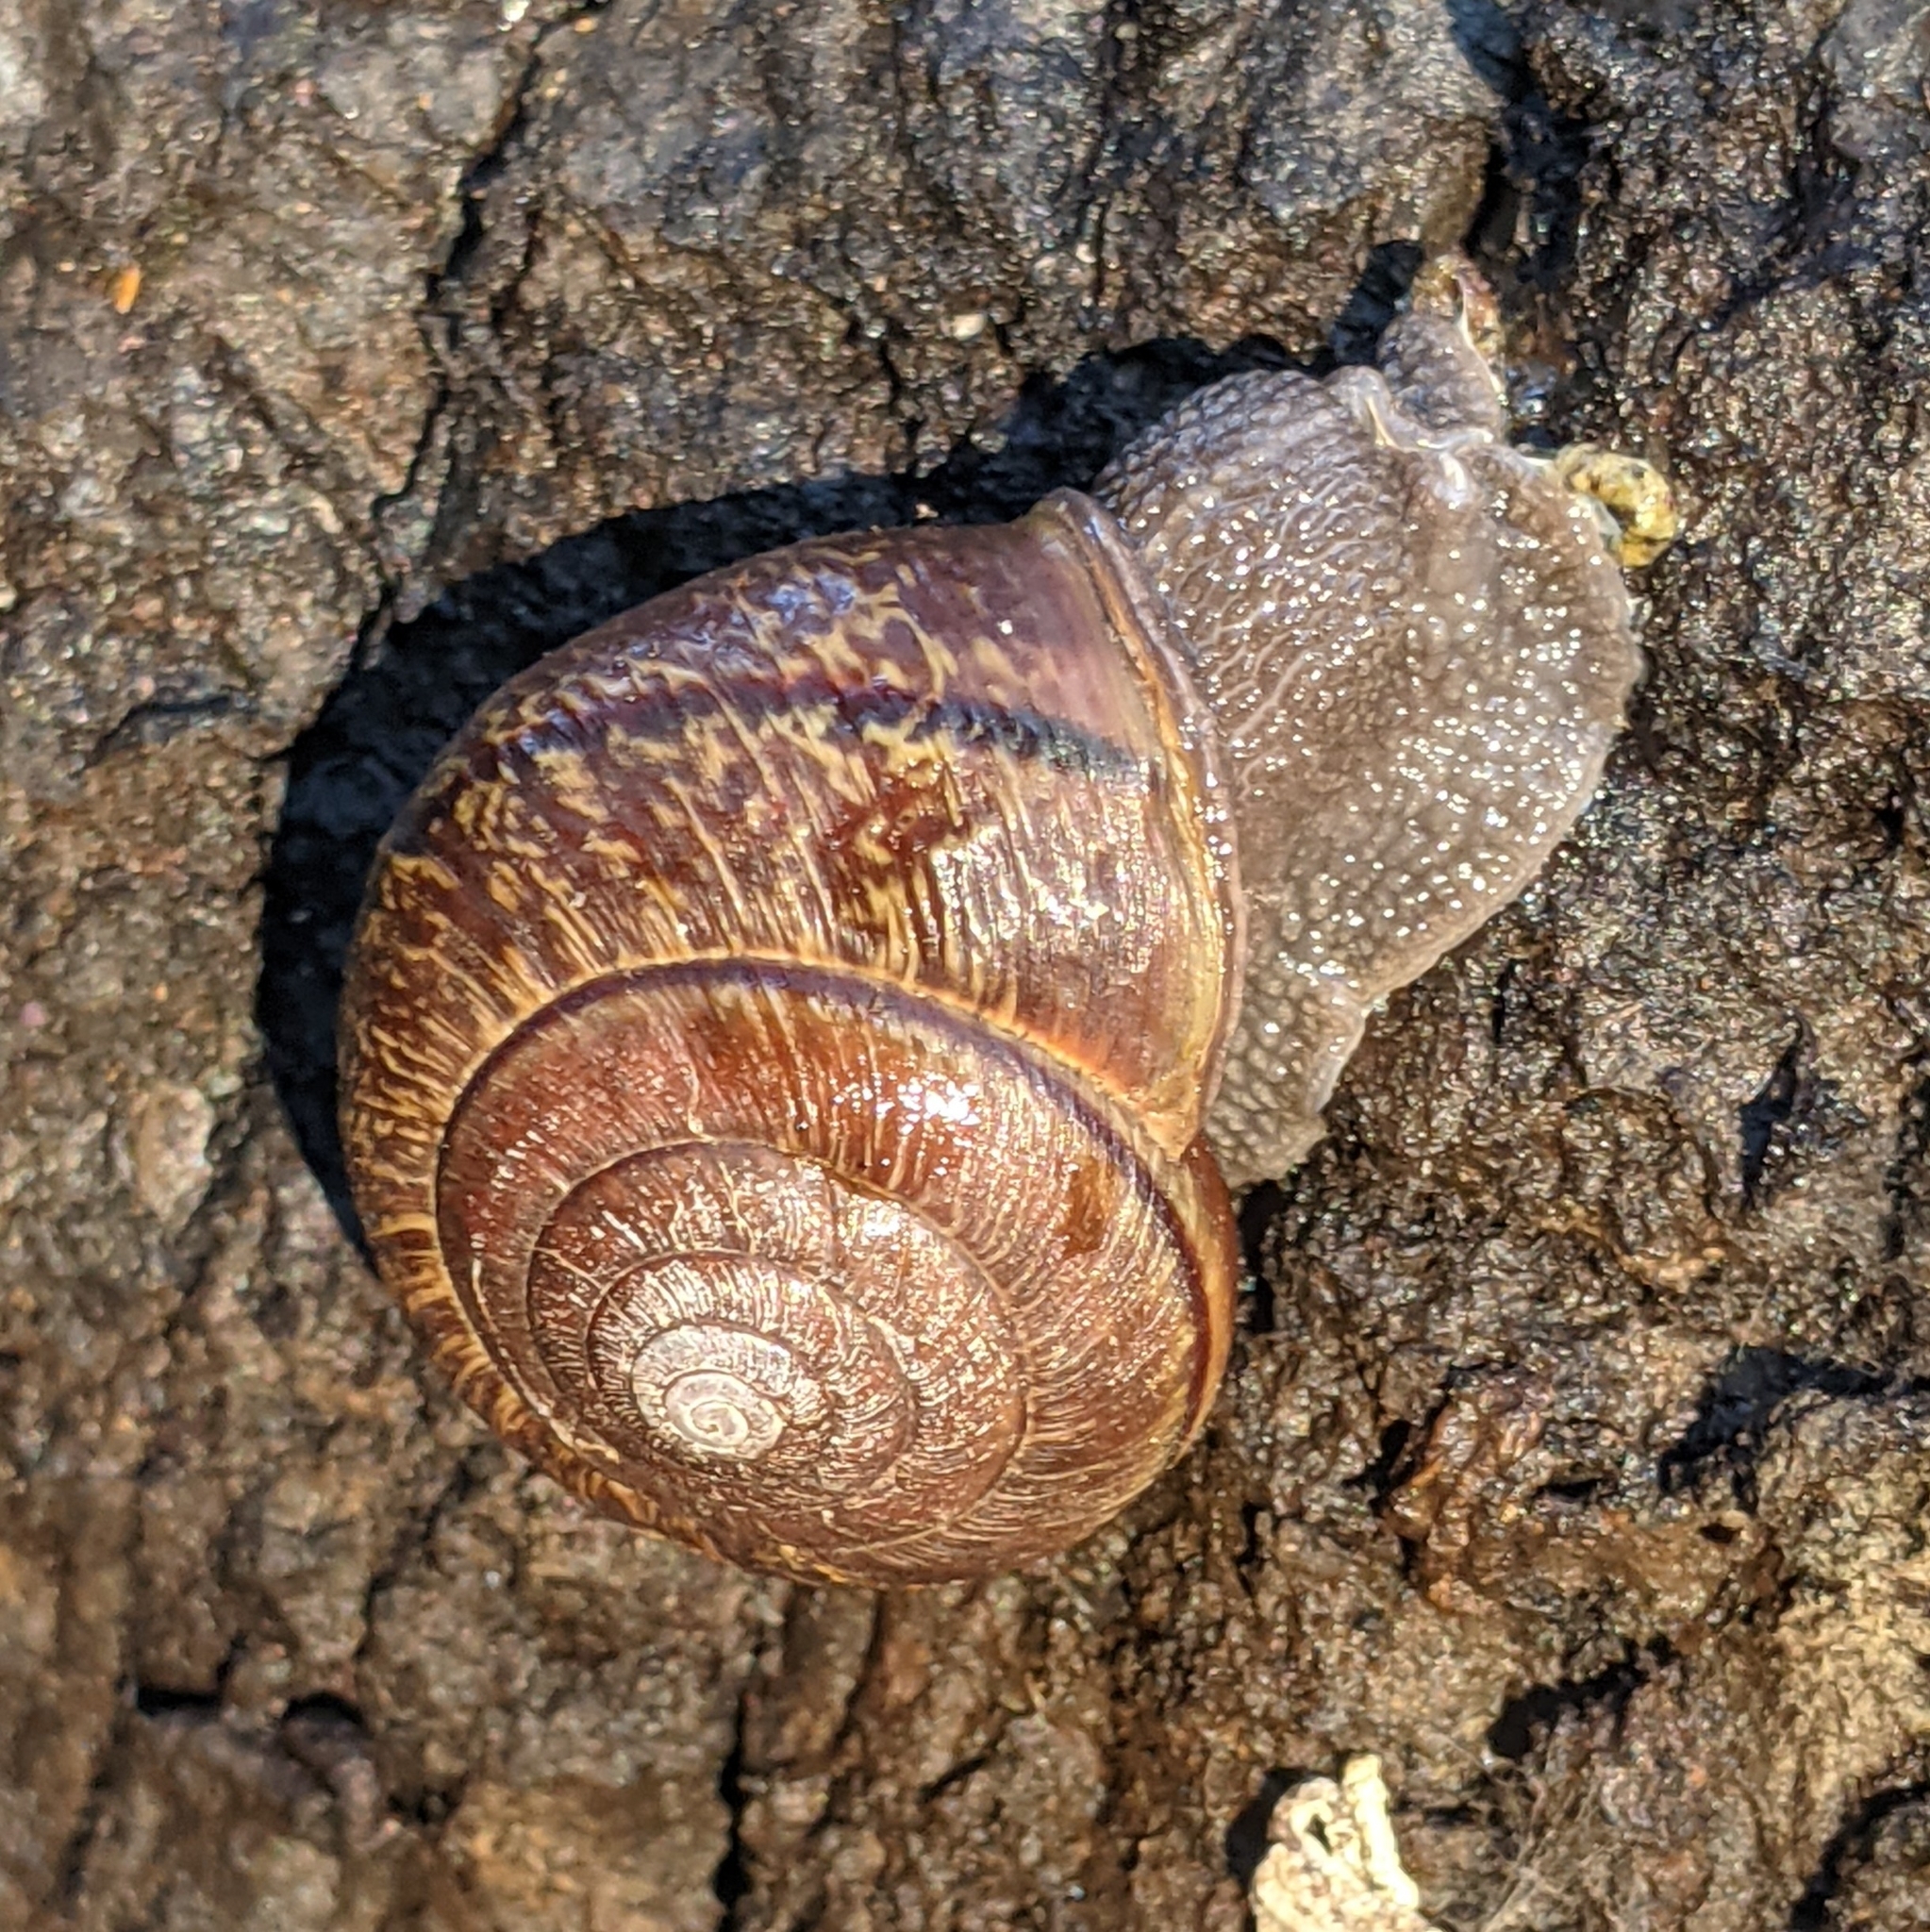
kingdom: Animalia
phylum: Mollusca
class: Gastropoda
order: Stylommatophora
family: Xanthonychidae
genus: Helminthoglypta
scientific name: Helminthoglypta arrosa
